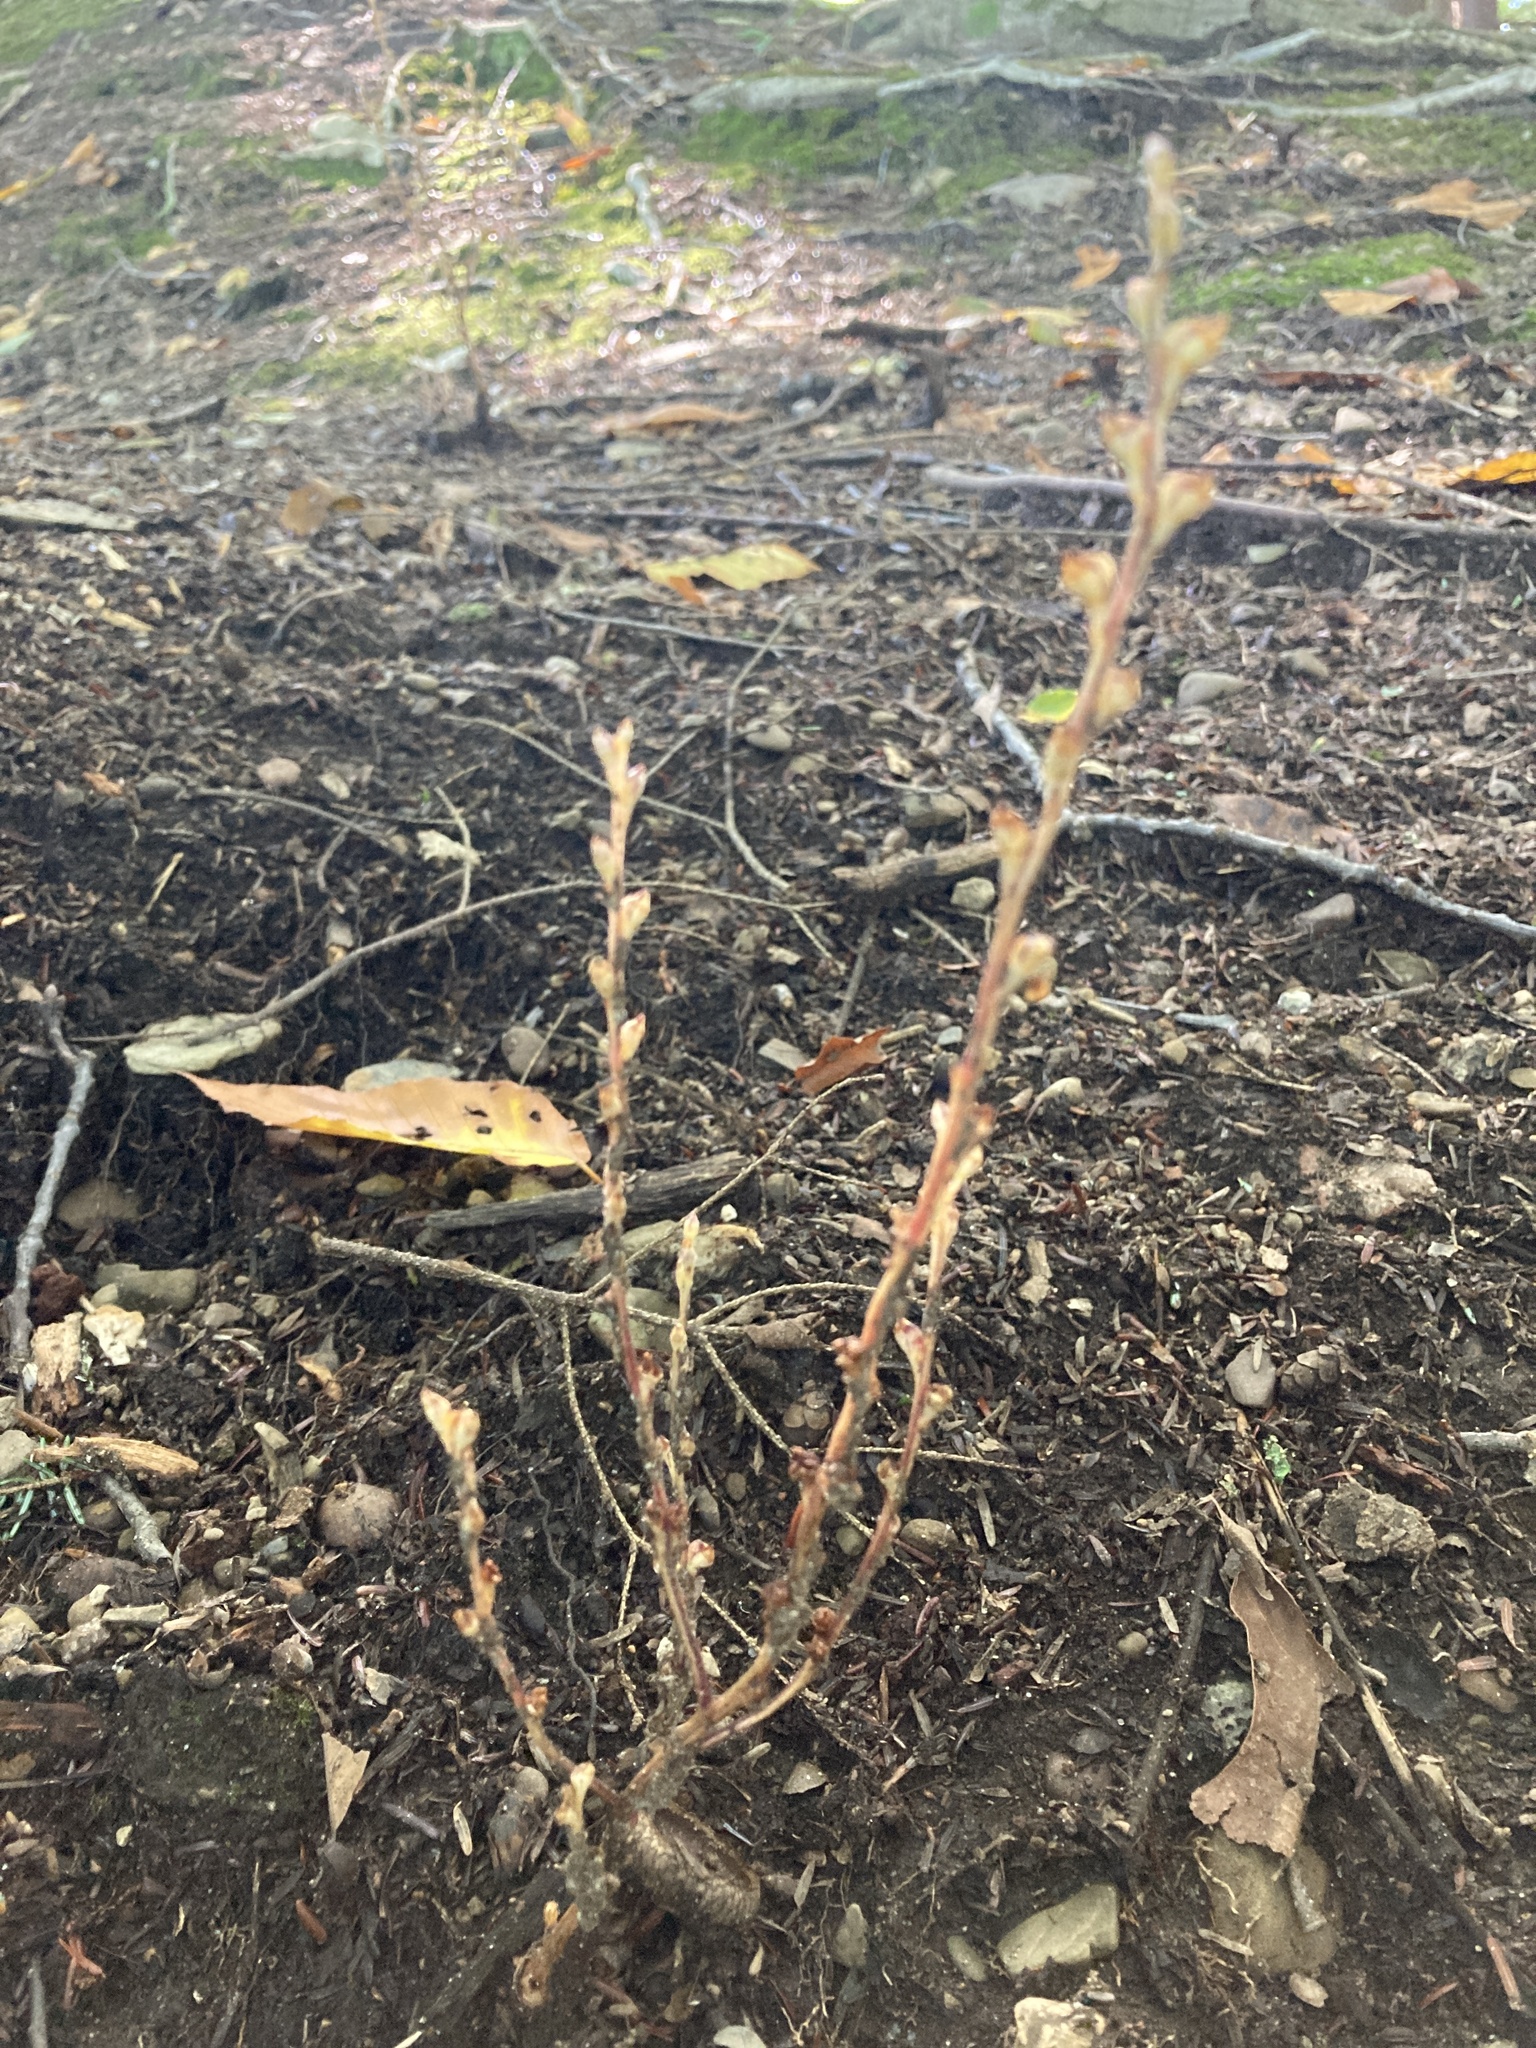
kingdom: Plantae
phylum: Tracheophyta
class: Magnoliopsida
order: Lamiales
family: Orobanchaceae
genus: Epifagus
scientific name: Epifagus virginiana
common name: Beechdrops
